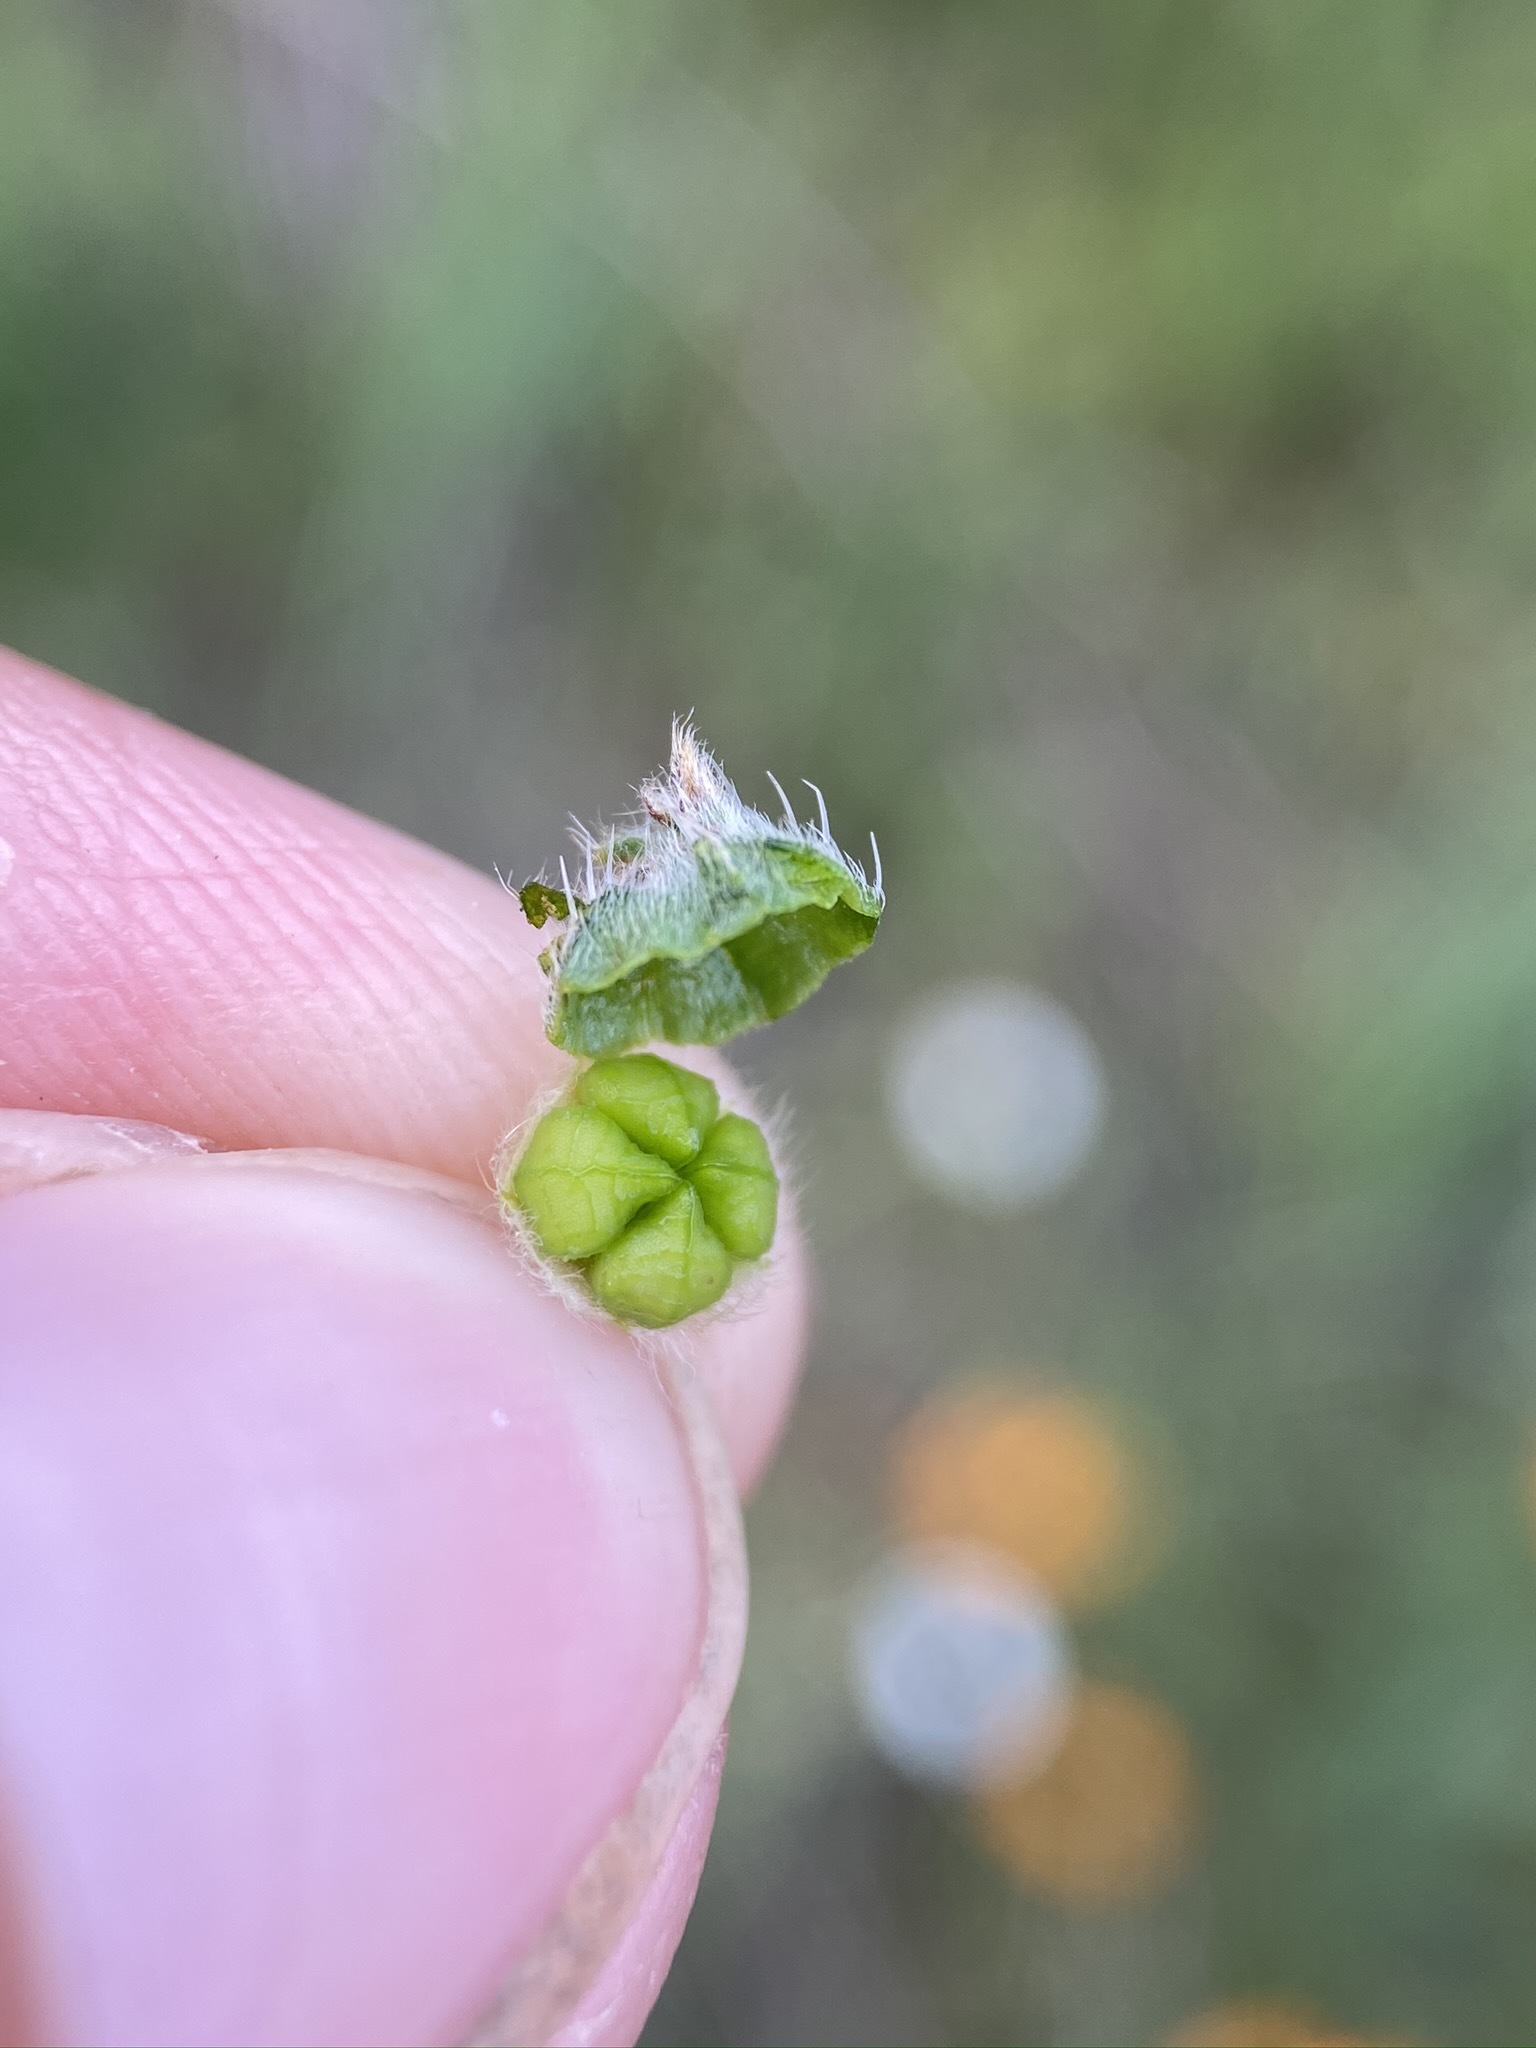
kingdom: Plantae
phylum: Tracheophyta
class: Magnoliopsida
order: Boraginales
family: Boraginaceae
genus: Plagiobothrys
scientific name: Plagiobothrys nothofulvus
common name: Popcorn-flower
